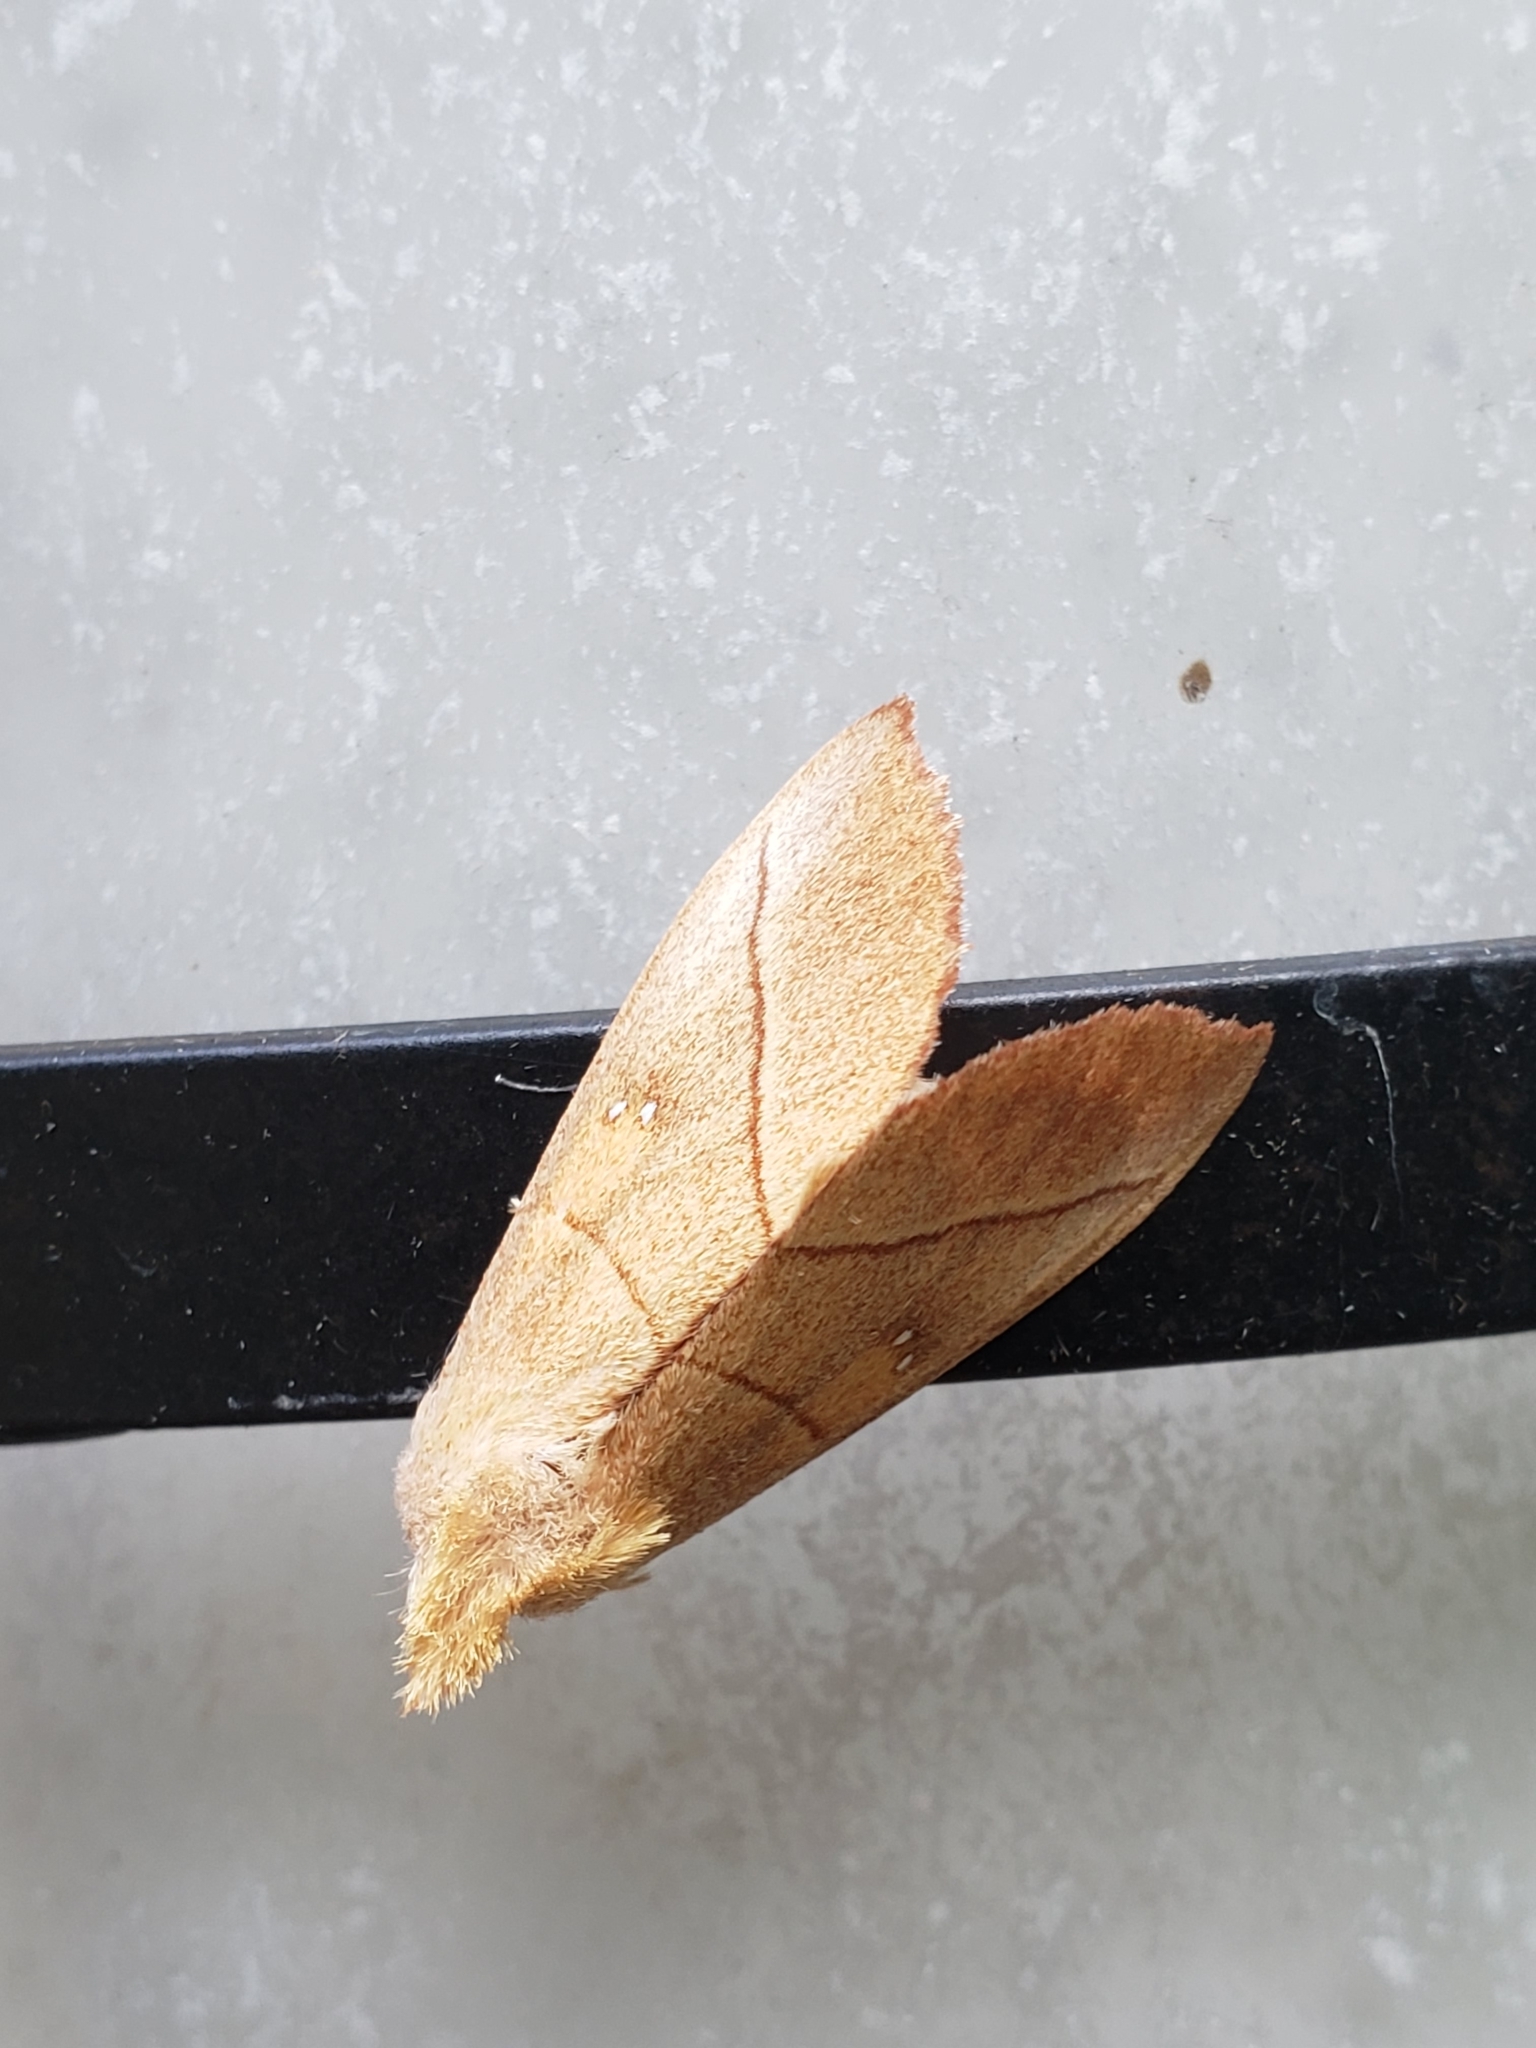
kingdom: Animalia
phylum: Arthropoda
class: Insecta
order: Lepidoptera
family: Notodontidae
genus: Nadata
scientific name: Nadata gibbosa
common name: White-dotted prominent
